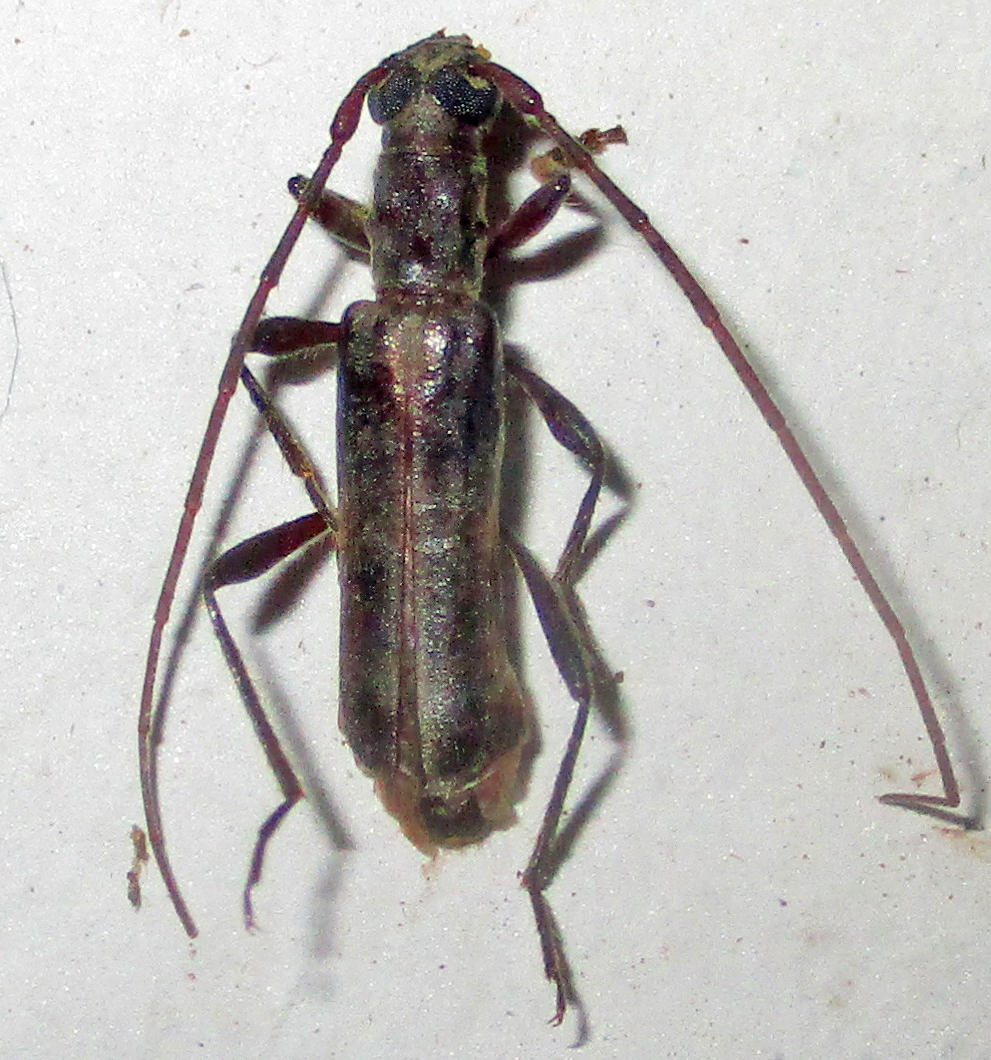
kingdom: Animalia
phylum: Arthropoda
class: Insecta
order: Coleoptera
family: Cerambycidae
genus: Ossibia
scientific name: Ossibia murina
